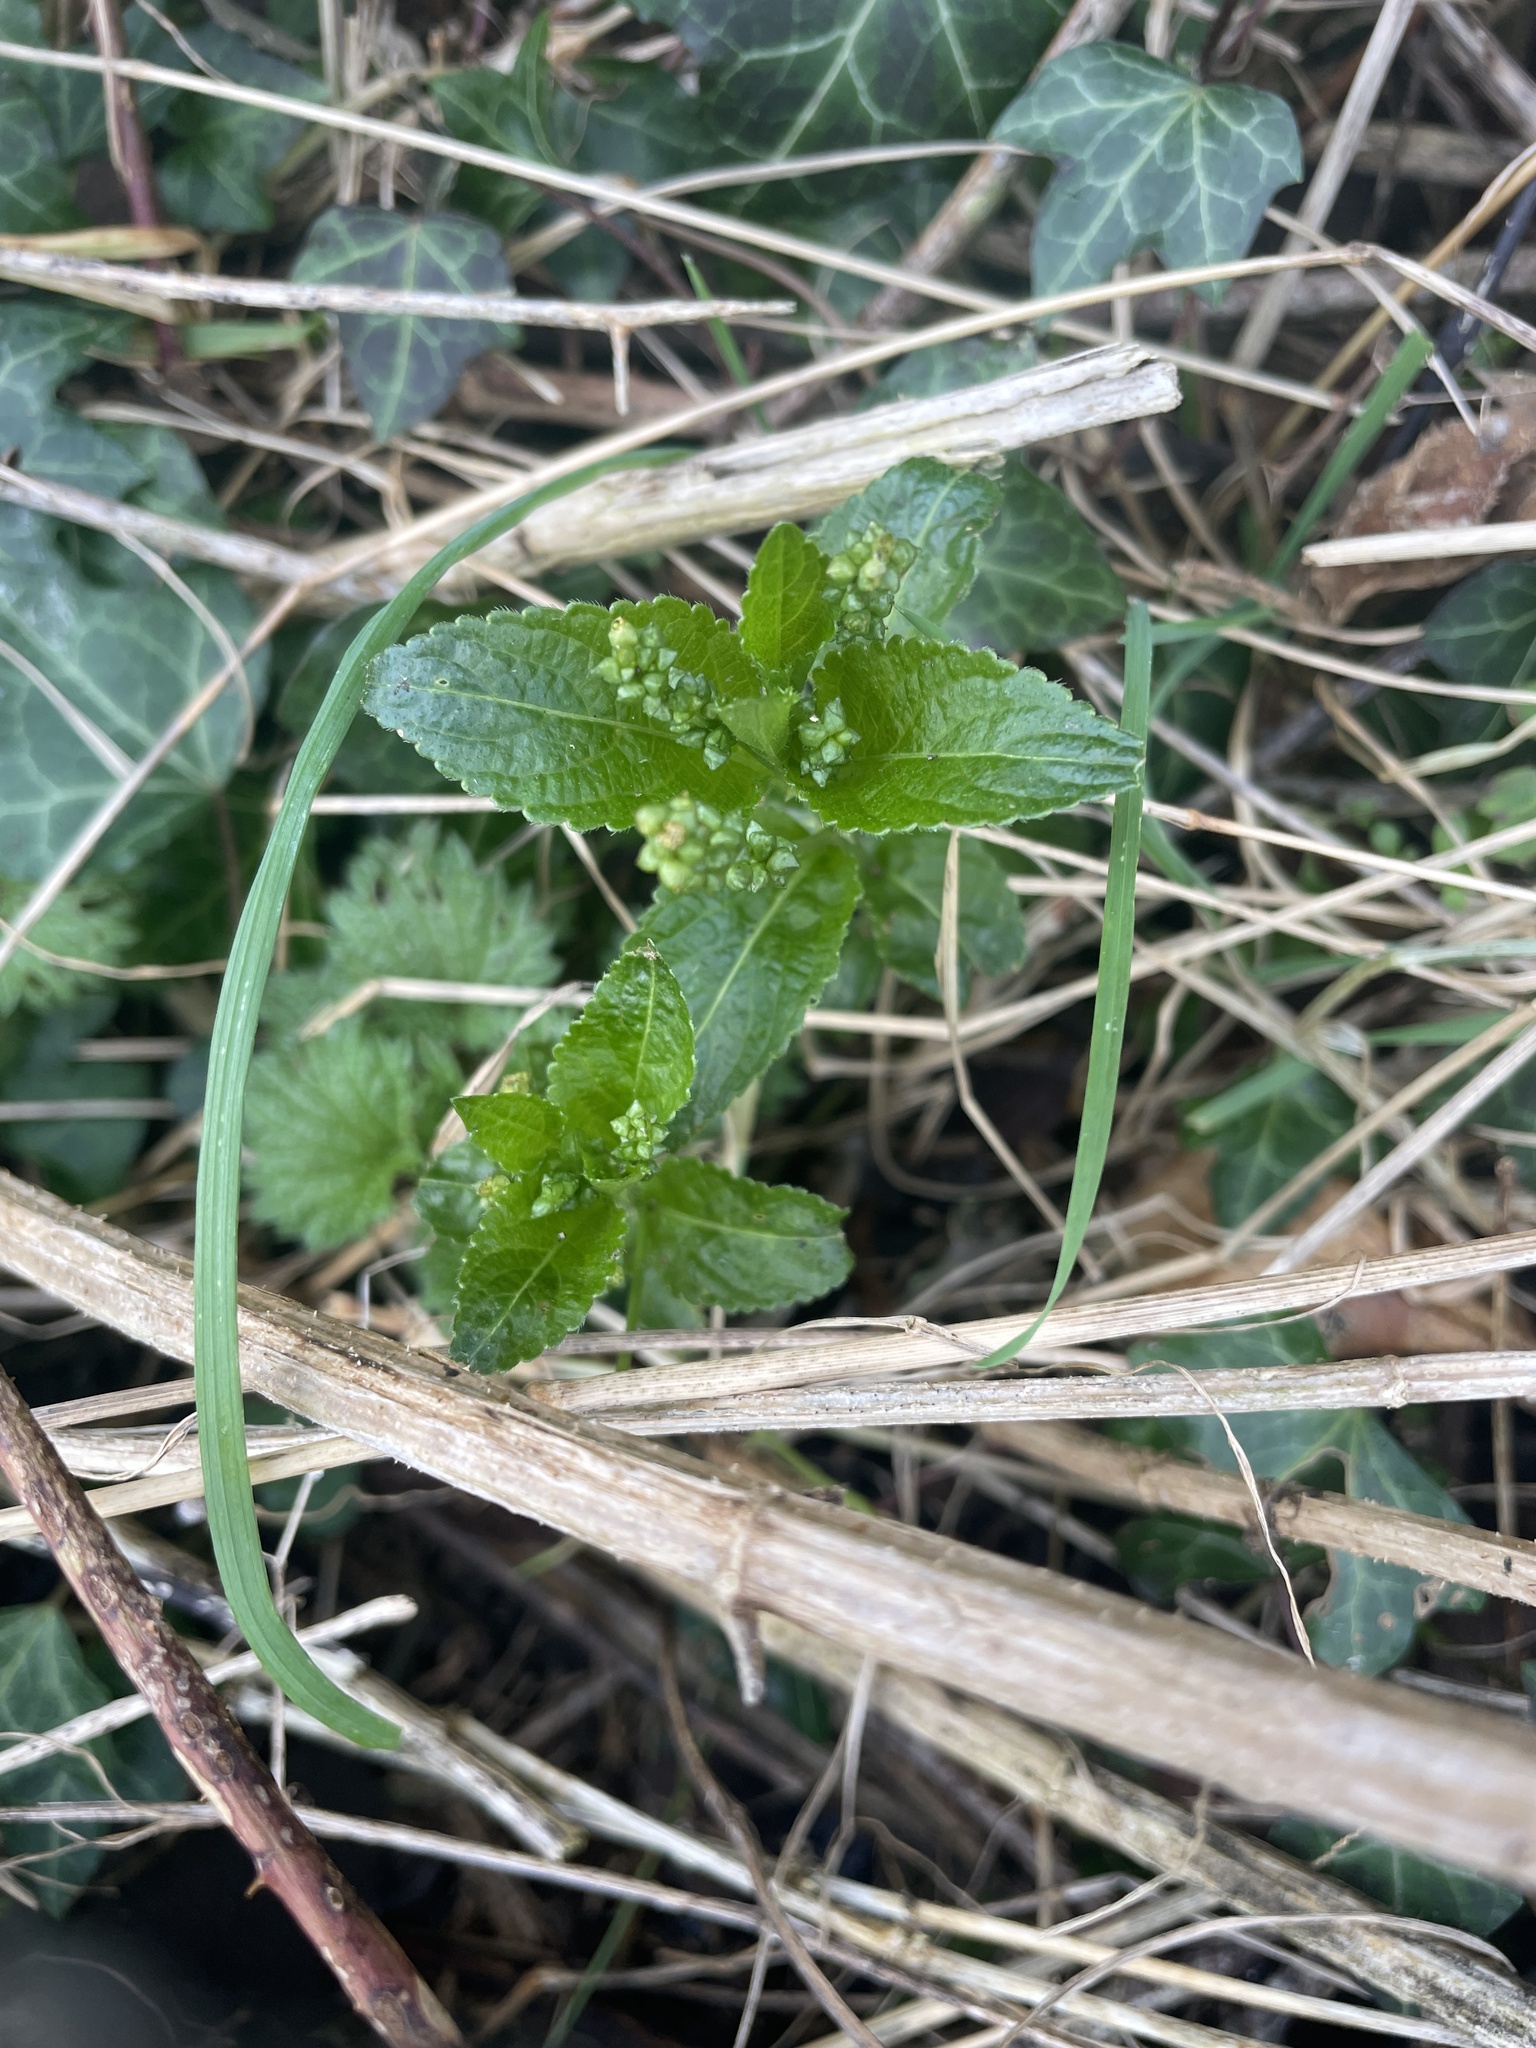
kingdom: Plantae
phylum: Tracheophyta
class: Magnoliopsida
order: Malpighiales
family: Euphorbiaceae
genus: Mercurialis
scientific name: Mercurialis perennis
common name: Dog mercury
